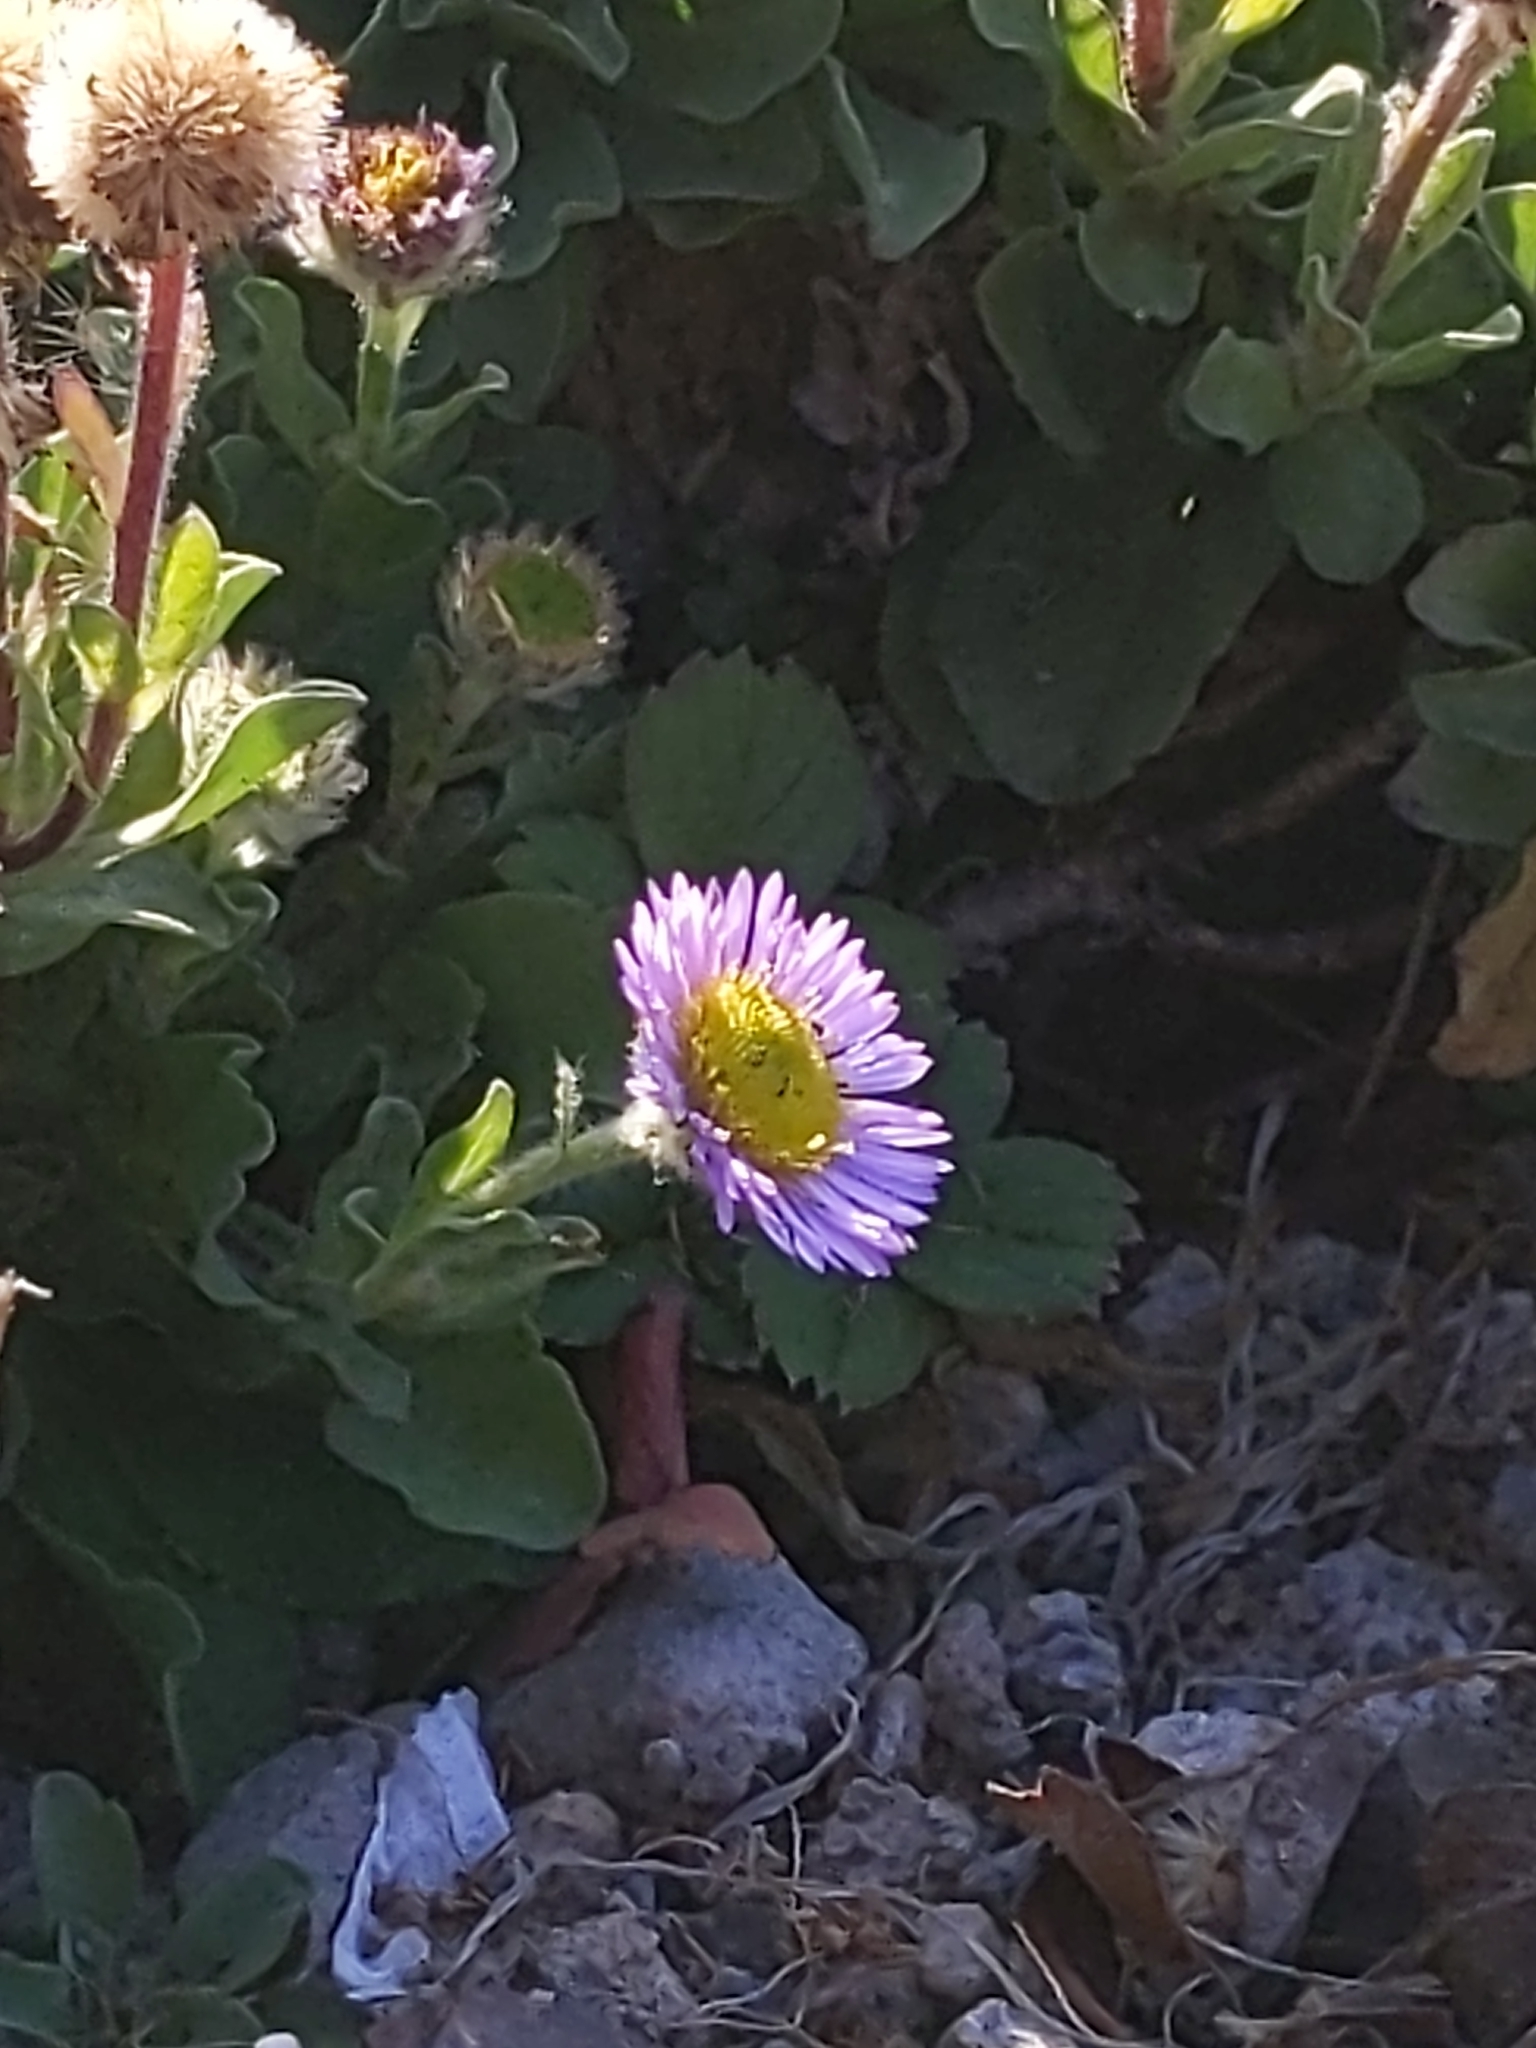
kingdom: Plantae
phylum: Tracheophyta
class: Magnoliopsida
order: Asterales
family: Asteraceae
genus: Erigeron
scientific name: Erigeron glaucus
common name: Seaside daisy
